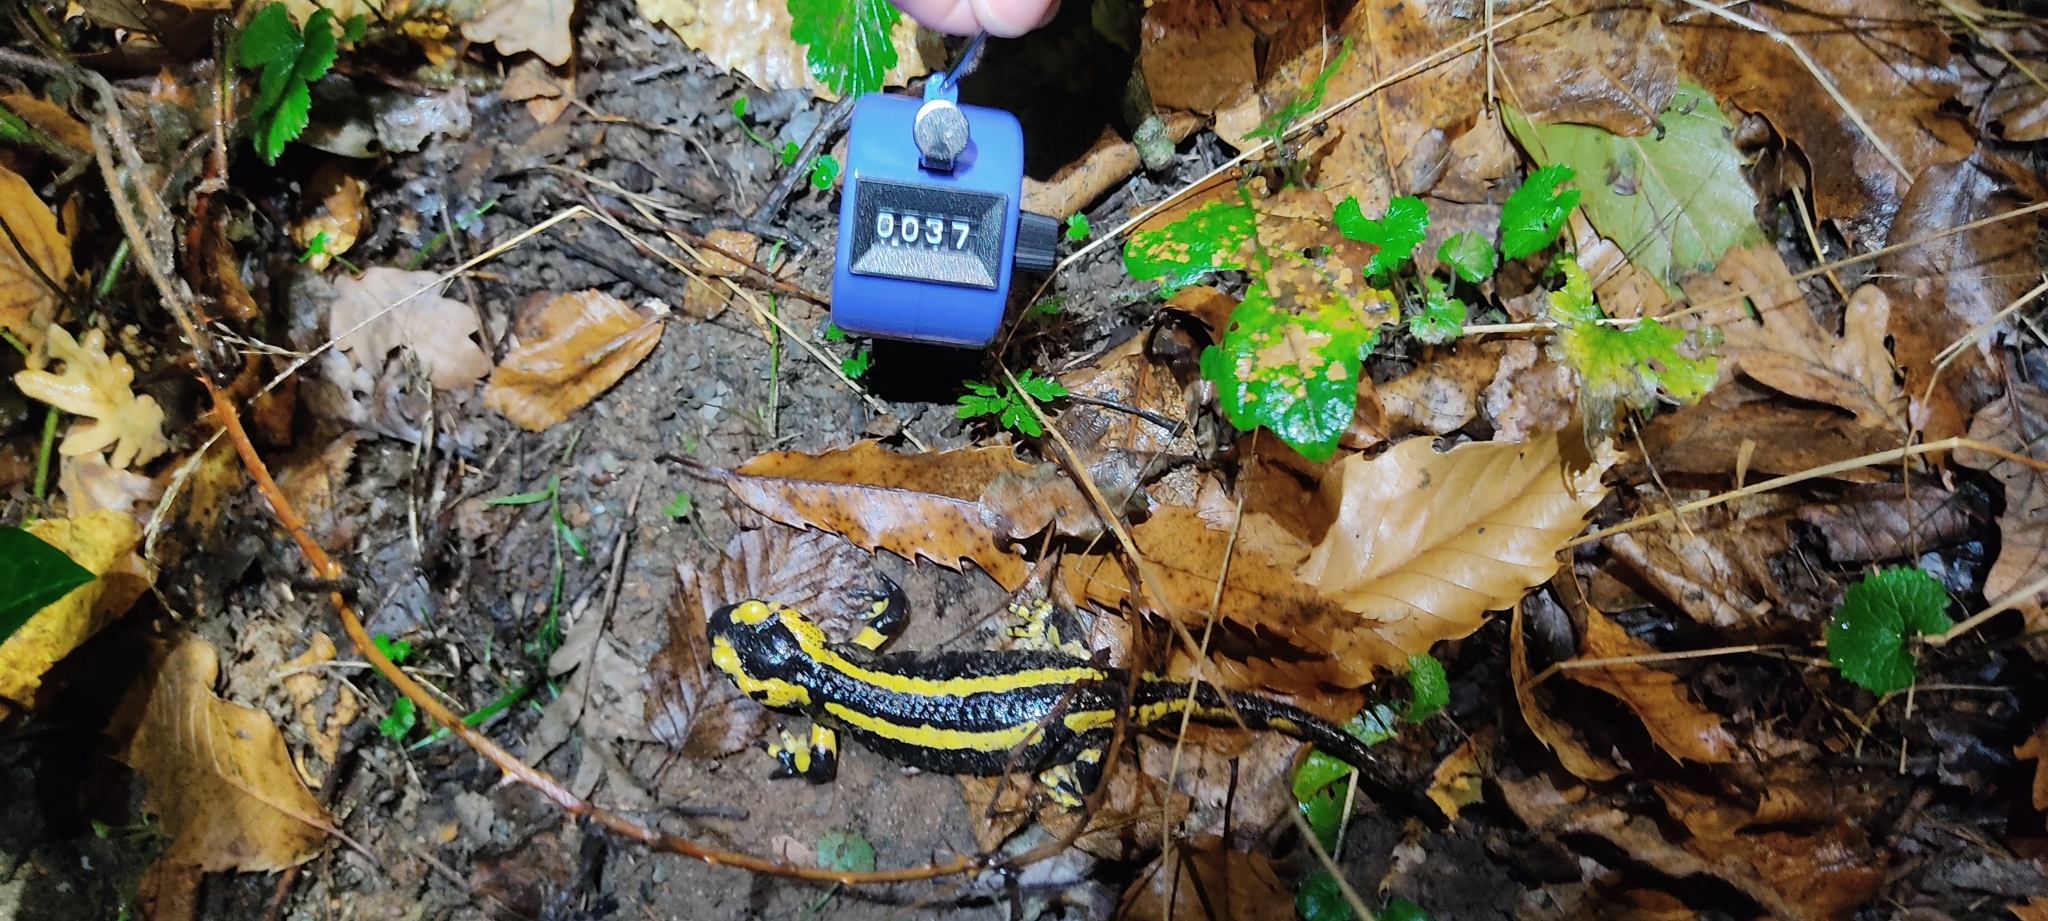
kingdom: Animalia
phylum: Chordata
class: Amphibia
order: Caudata
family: Salamandridae
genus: Salamandra
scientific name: Salamandra salamandra
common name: Fire salamander
